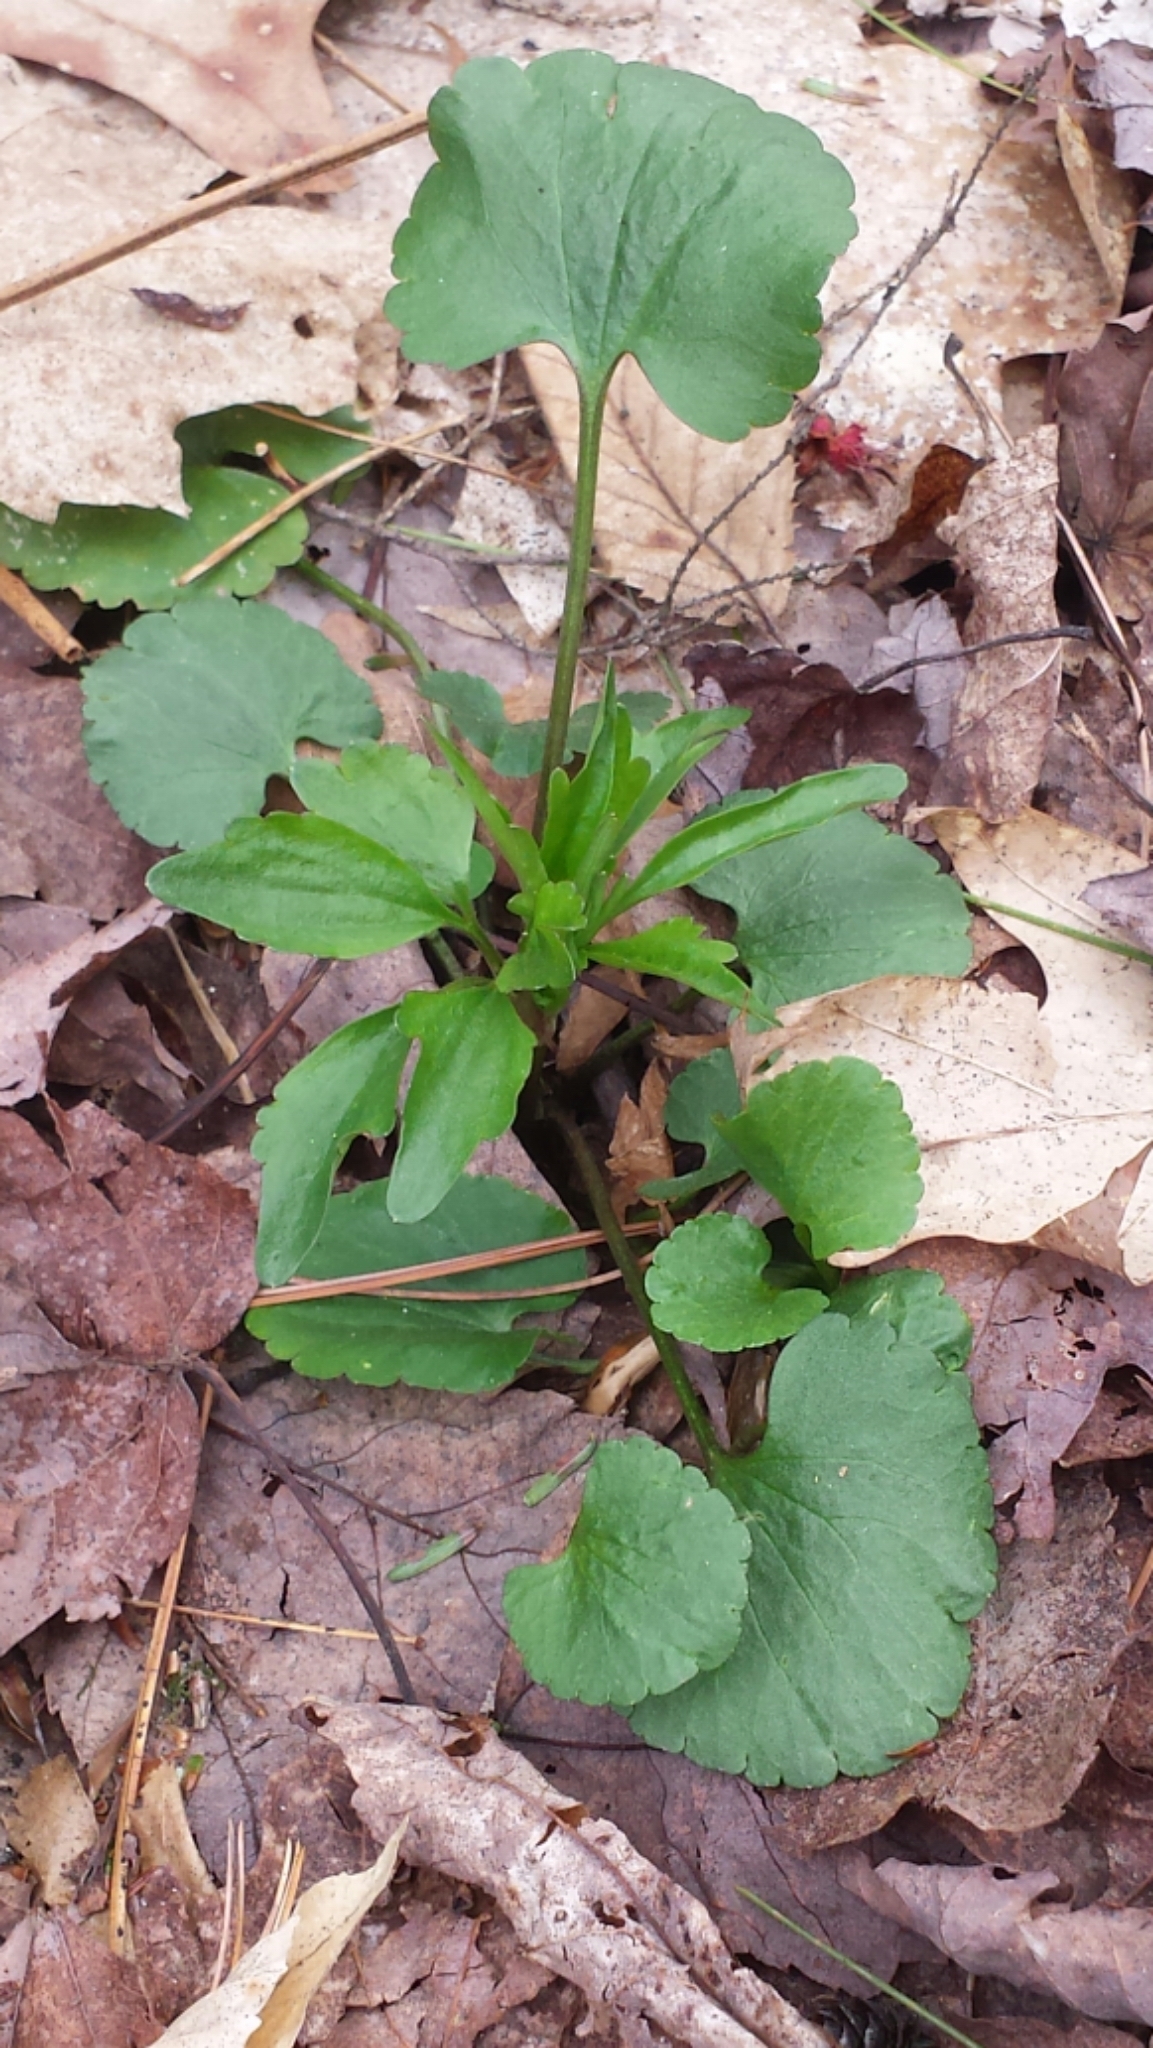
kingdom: Plantae
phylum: Tracheophyta
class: Magnoliopsida
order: Ranunculales
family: Ranunculaceae
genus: Ranunculus
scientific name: Ranunculus abortivus
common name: Early wood buttercup
